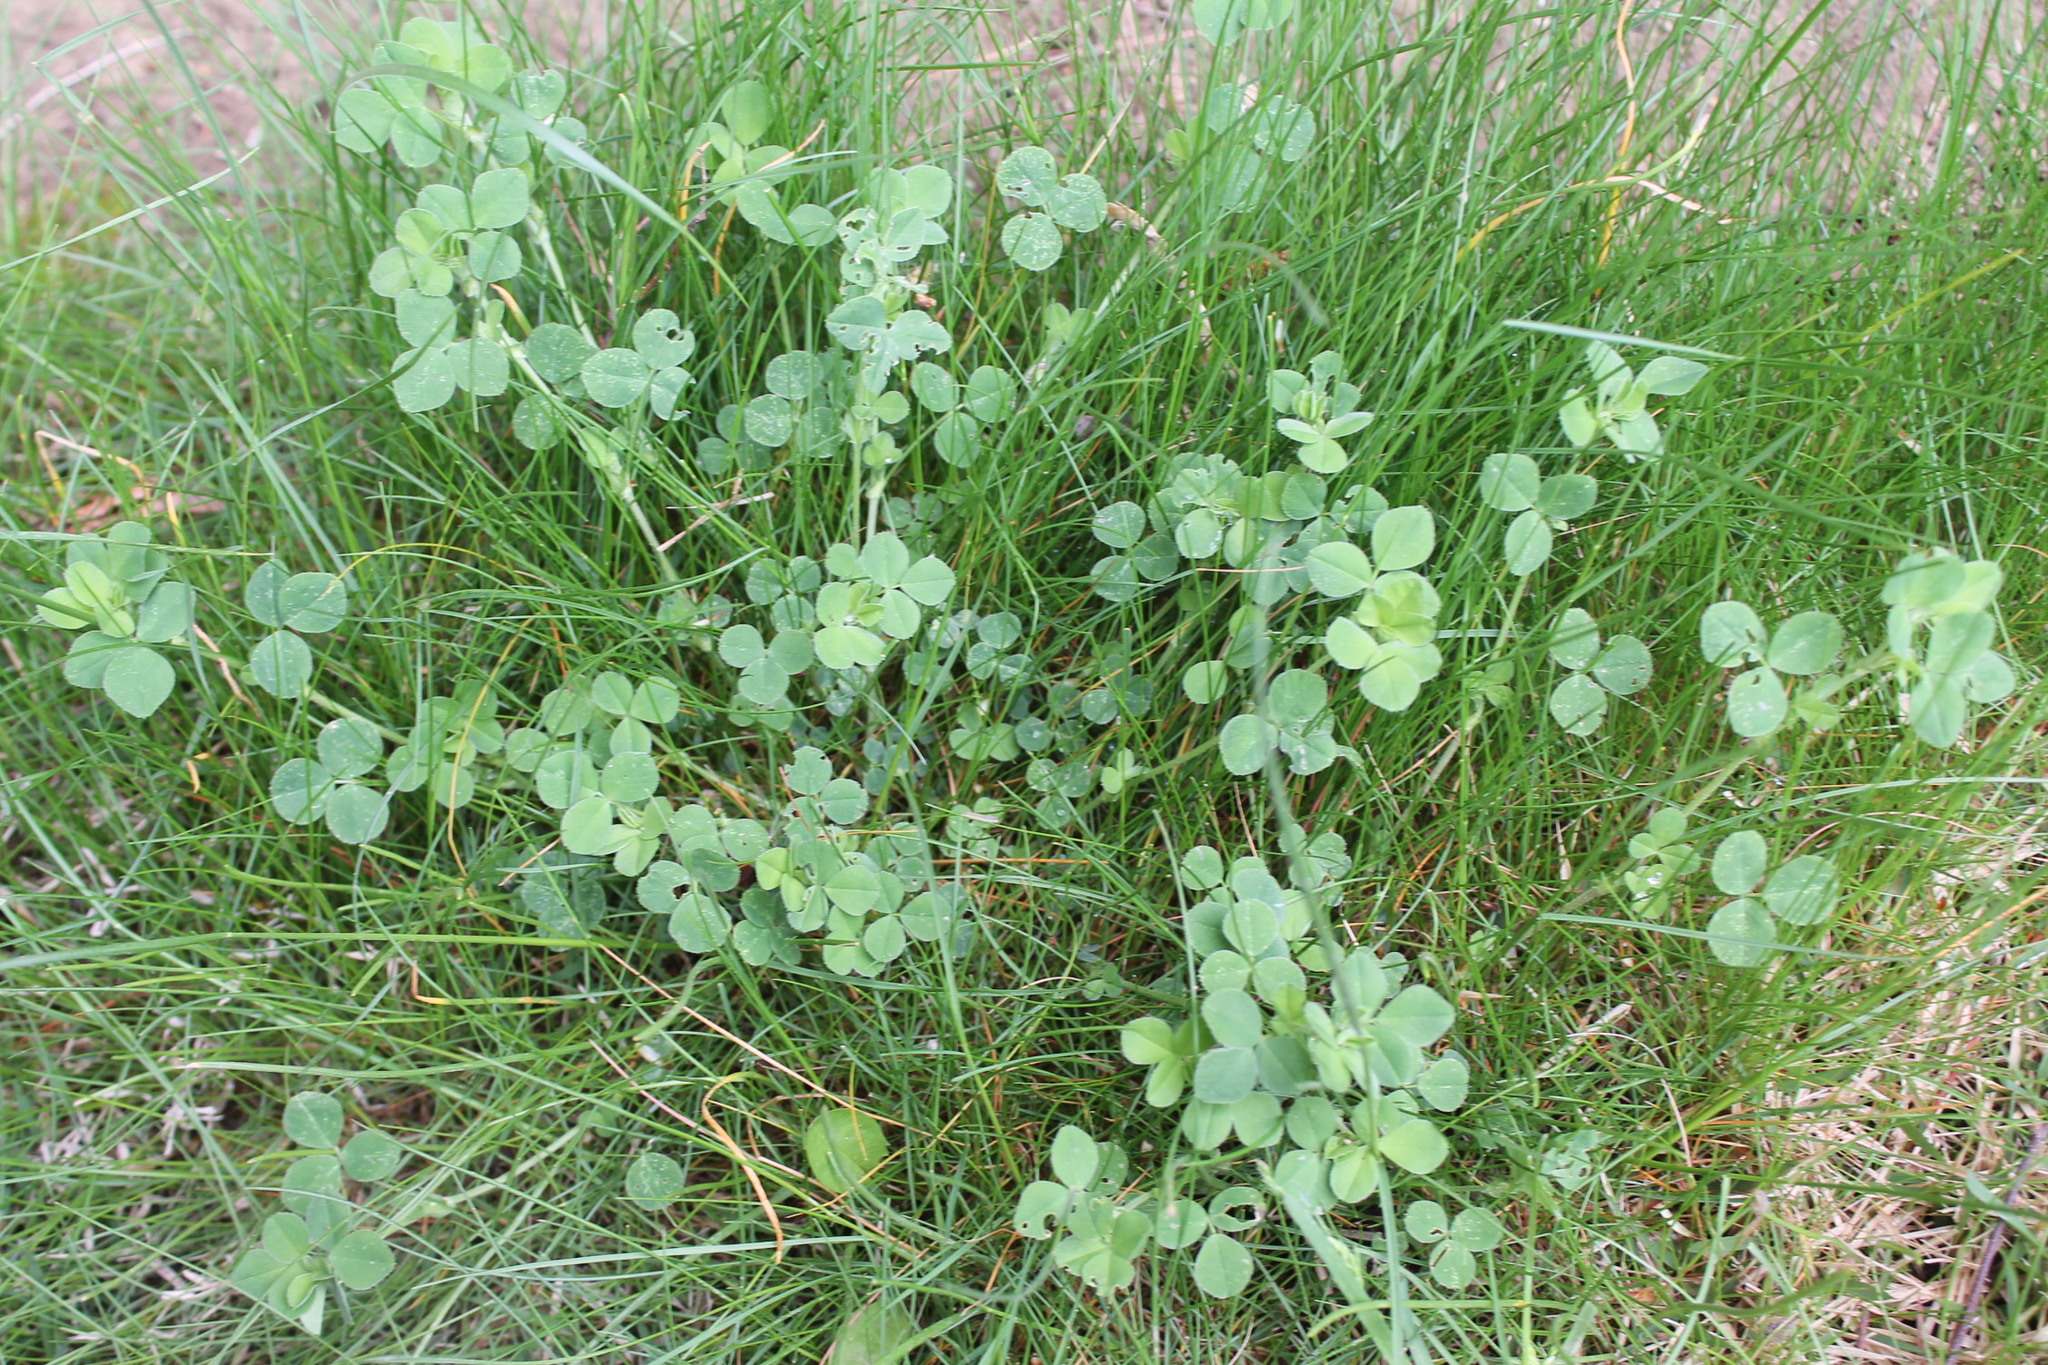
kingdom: Plantae
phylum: Tracheophyta
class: Magnoliopsida
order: Fabales
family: Fabaceae
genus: Medicago
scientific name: Medicago lupulina
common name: Black medick
